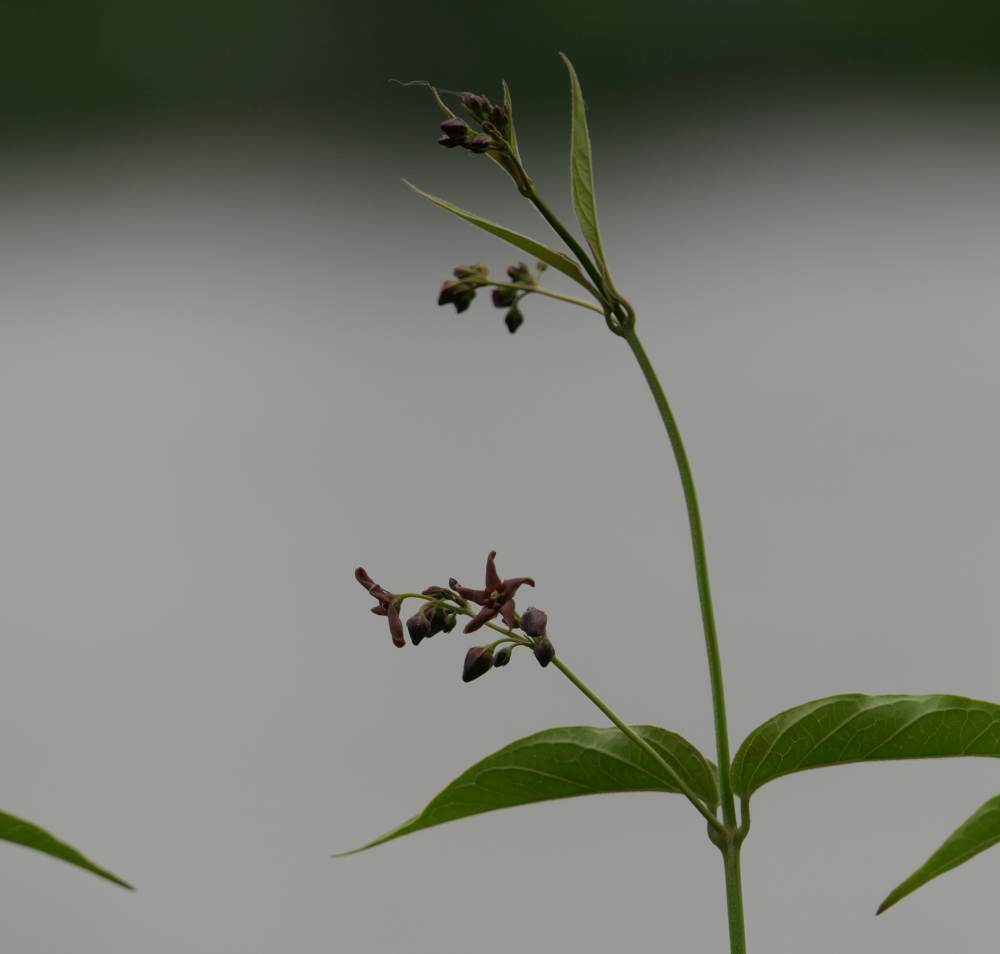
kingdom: Plantae
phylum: Tracheophyta
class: Magnoliopsida
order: Gentianales
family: Apocynaceae
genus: Vincetoxicum
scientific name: Vincetoxicum rossicum
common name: Dog-strangling vine
